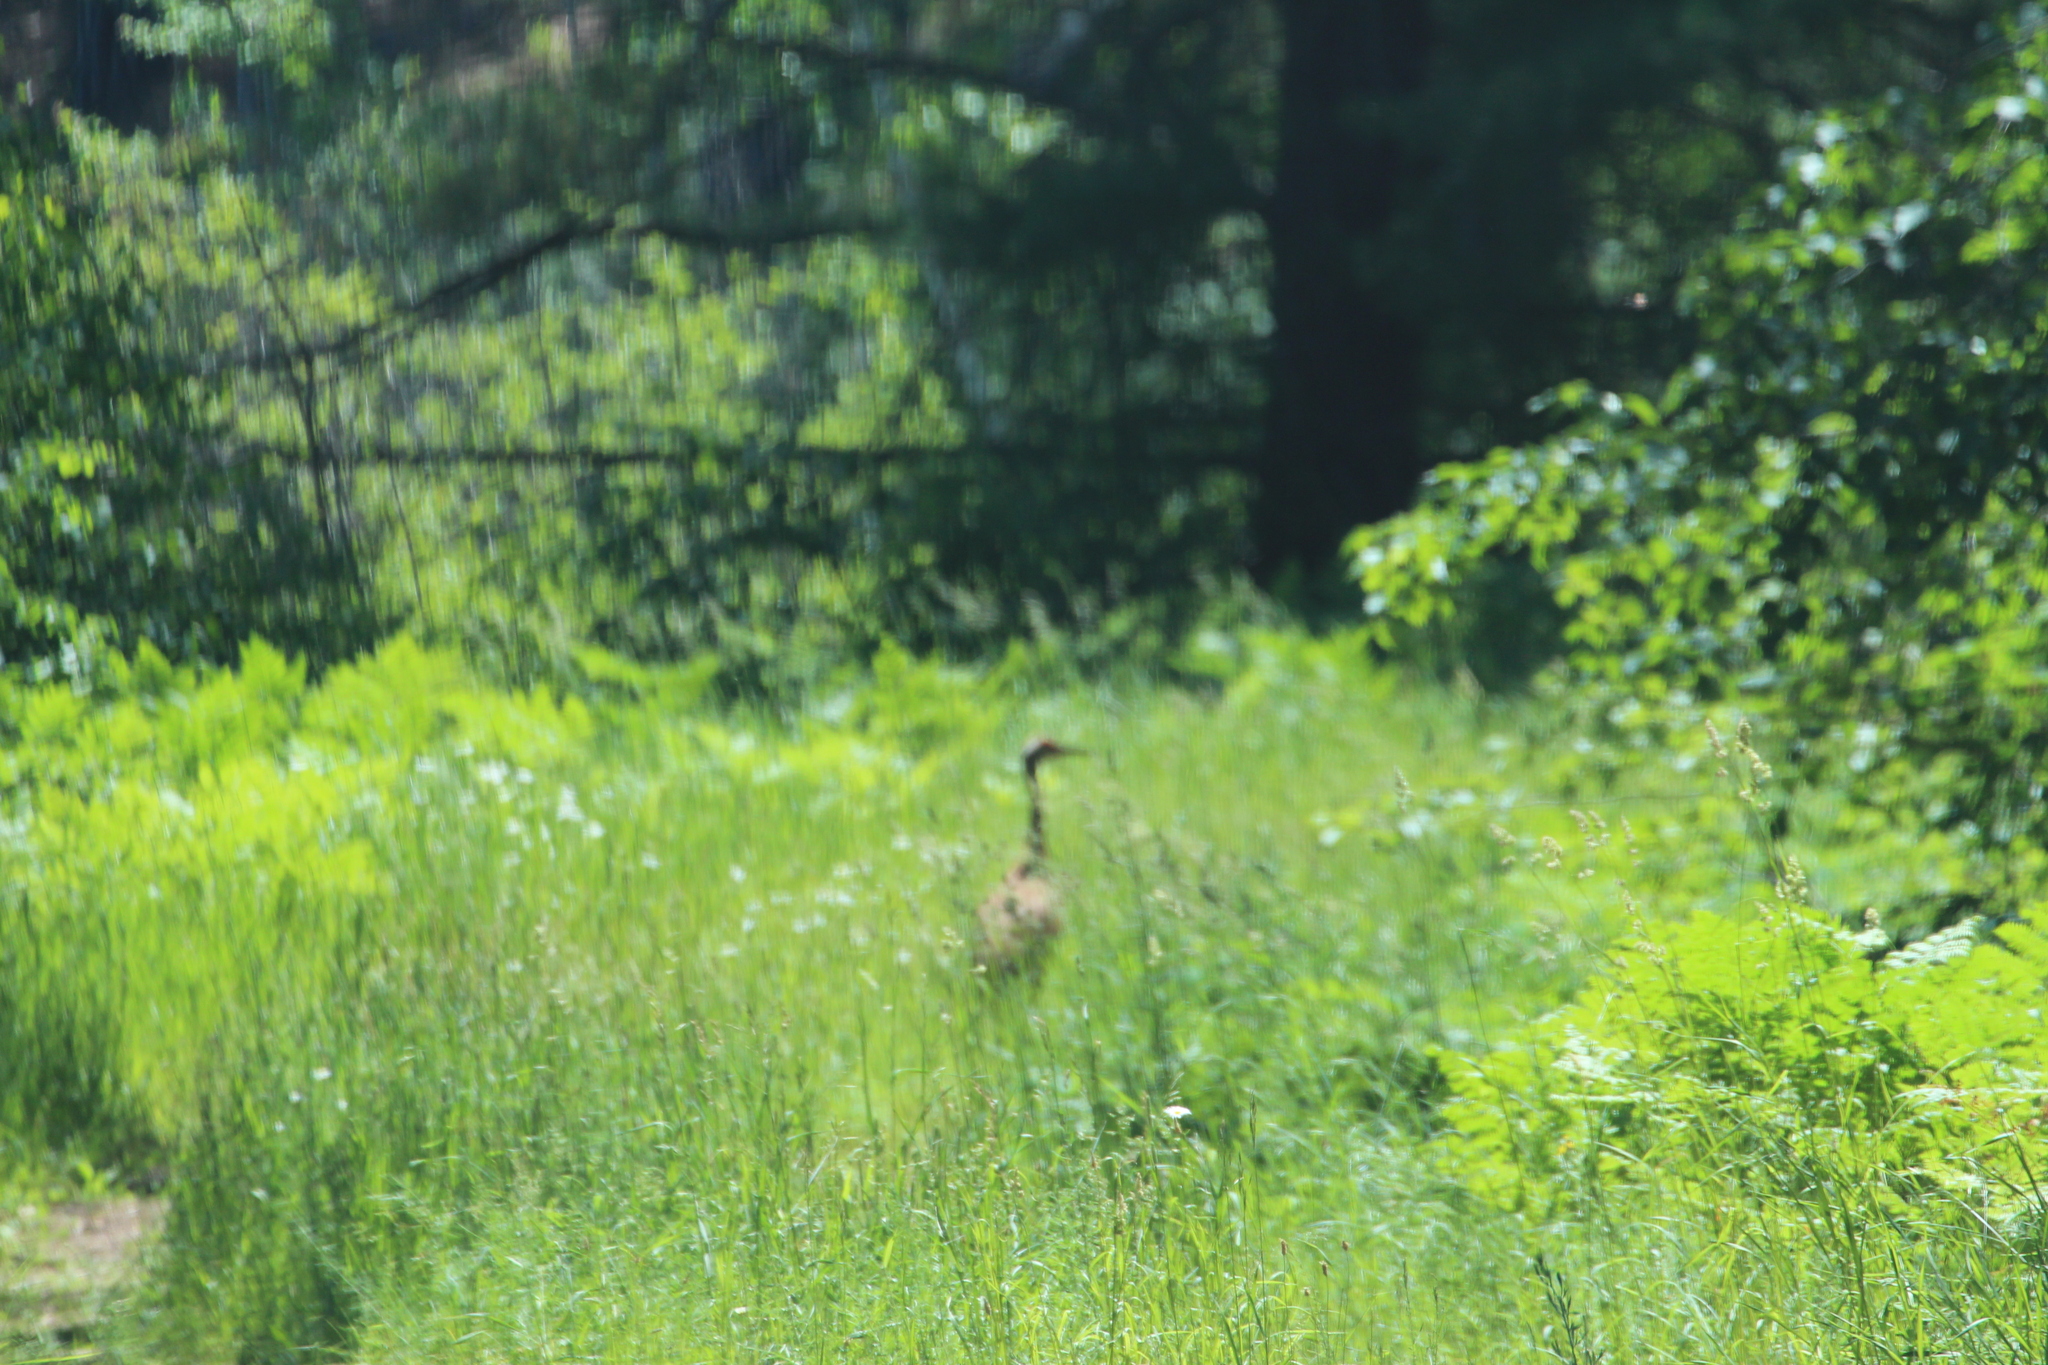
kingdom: Animalia
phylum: Chordata
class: Aves
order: Gruiformes
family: Gruidae
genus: Grus
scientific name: Grus canadensis
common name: Sandhill crane
